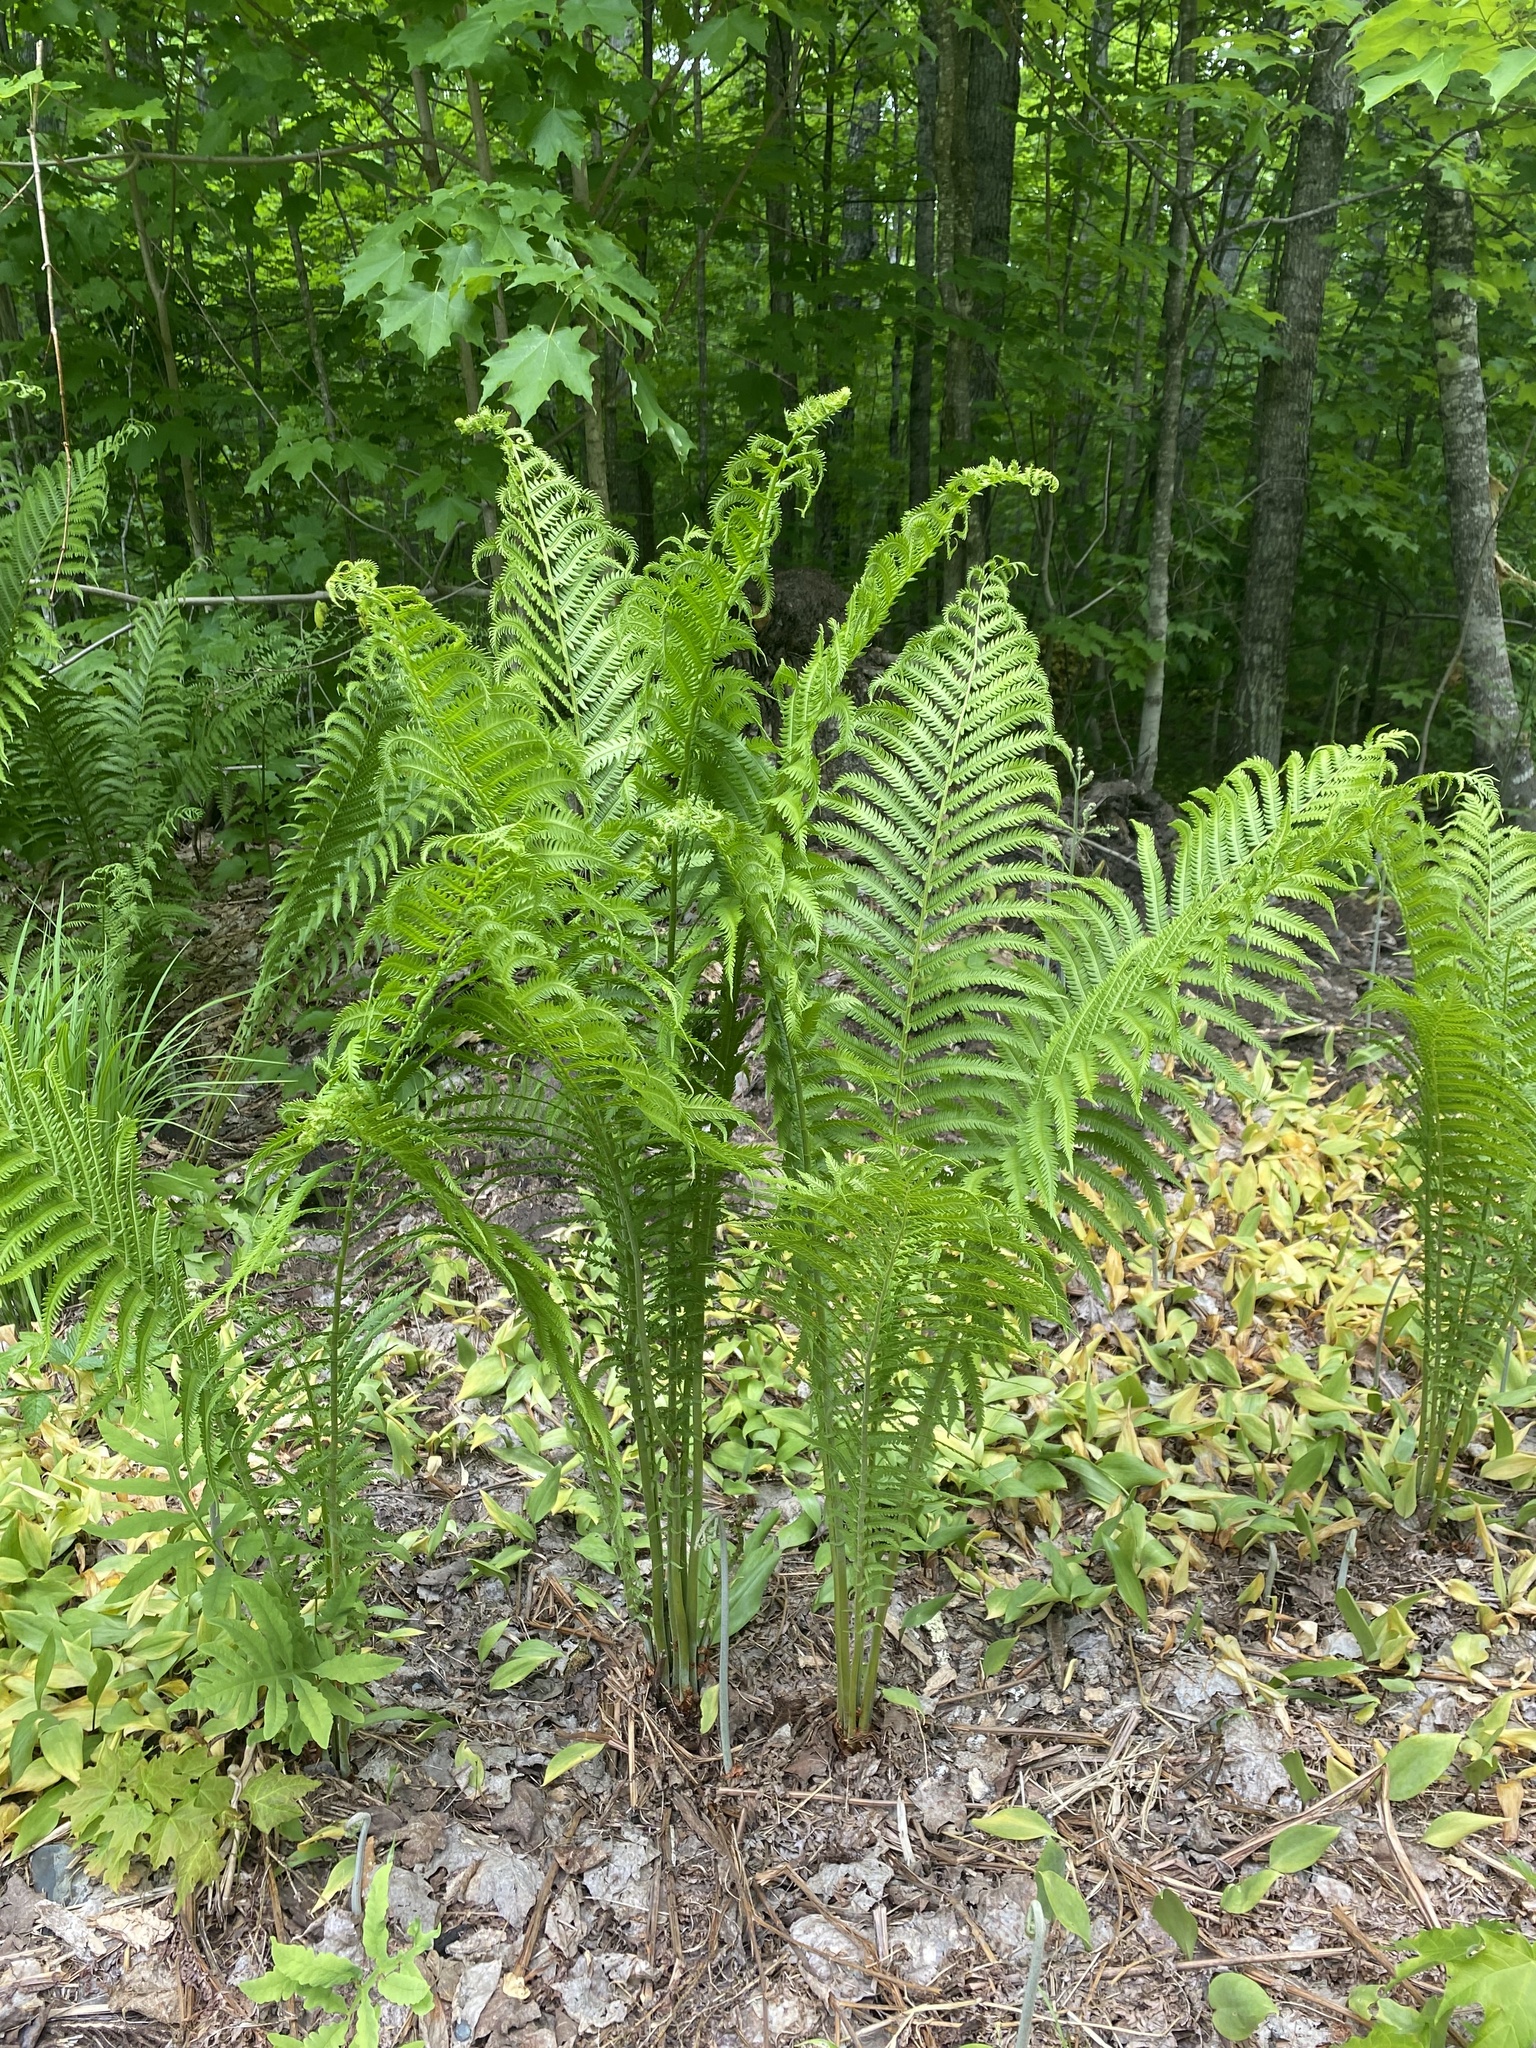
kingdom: Plantae
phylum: Tracheophyta
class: Polypodiopsida
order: Polypodiales
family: Onocleaceae
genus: Matteuccia
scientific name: Matteuccia struthiopteris
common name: Ostrich fern
